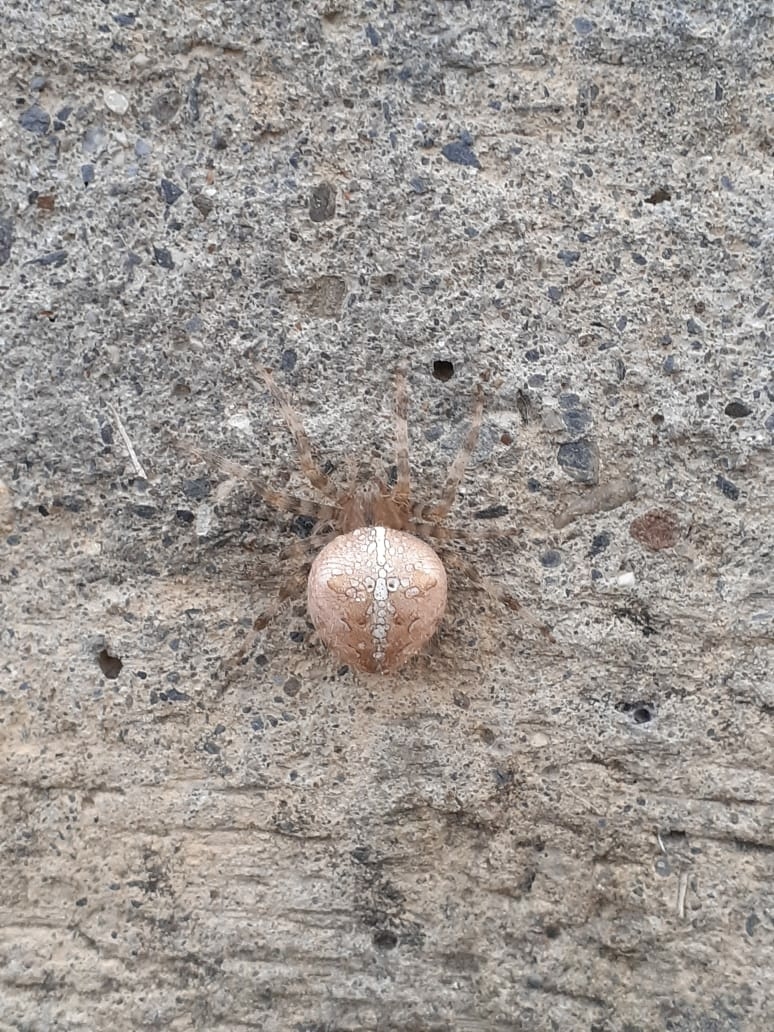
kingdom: Animalia
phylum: Arthropoda
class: Arachnida
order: Araneae
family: Araneidae
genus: Araneus
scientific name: Araneus diadematus
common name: Cross orbweaver
